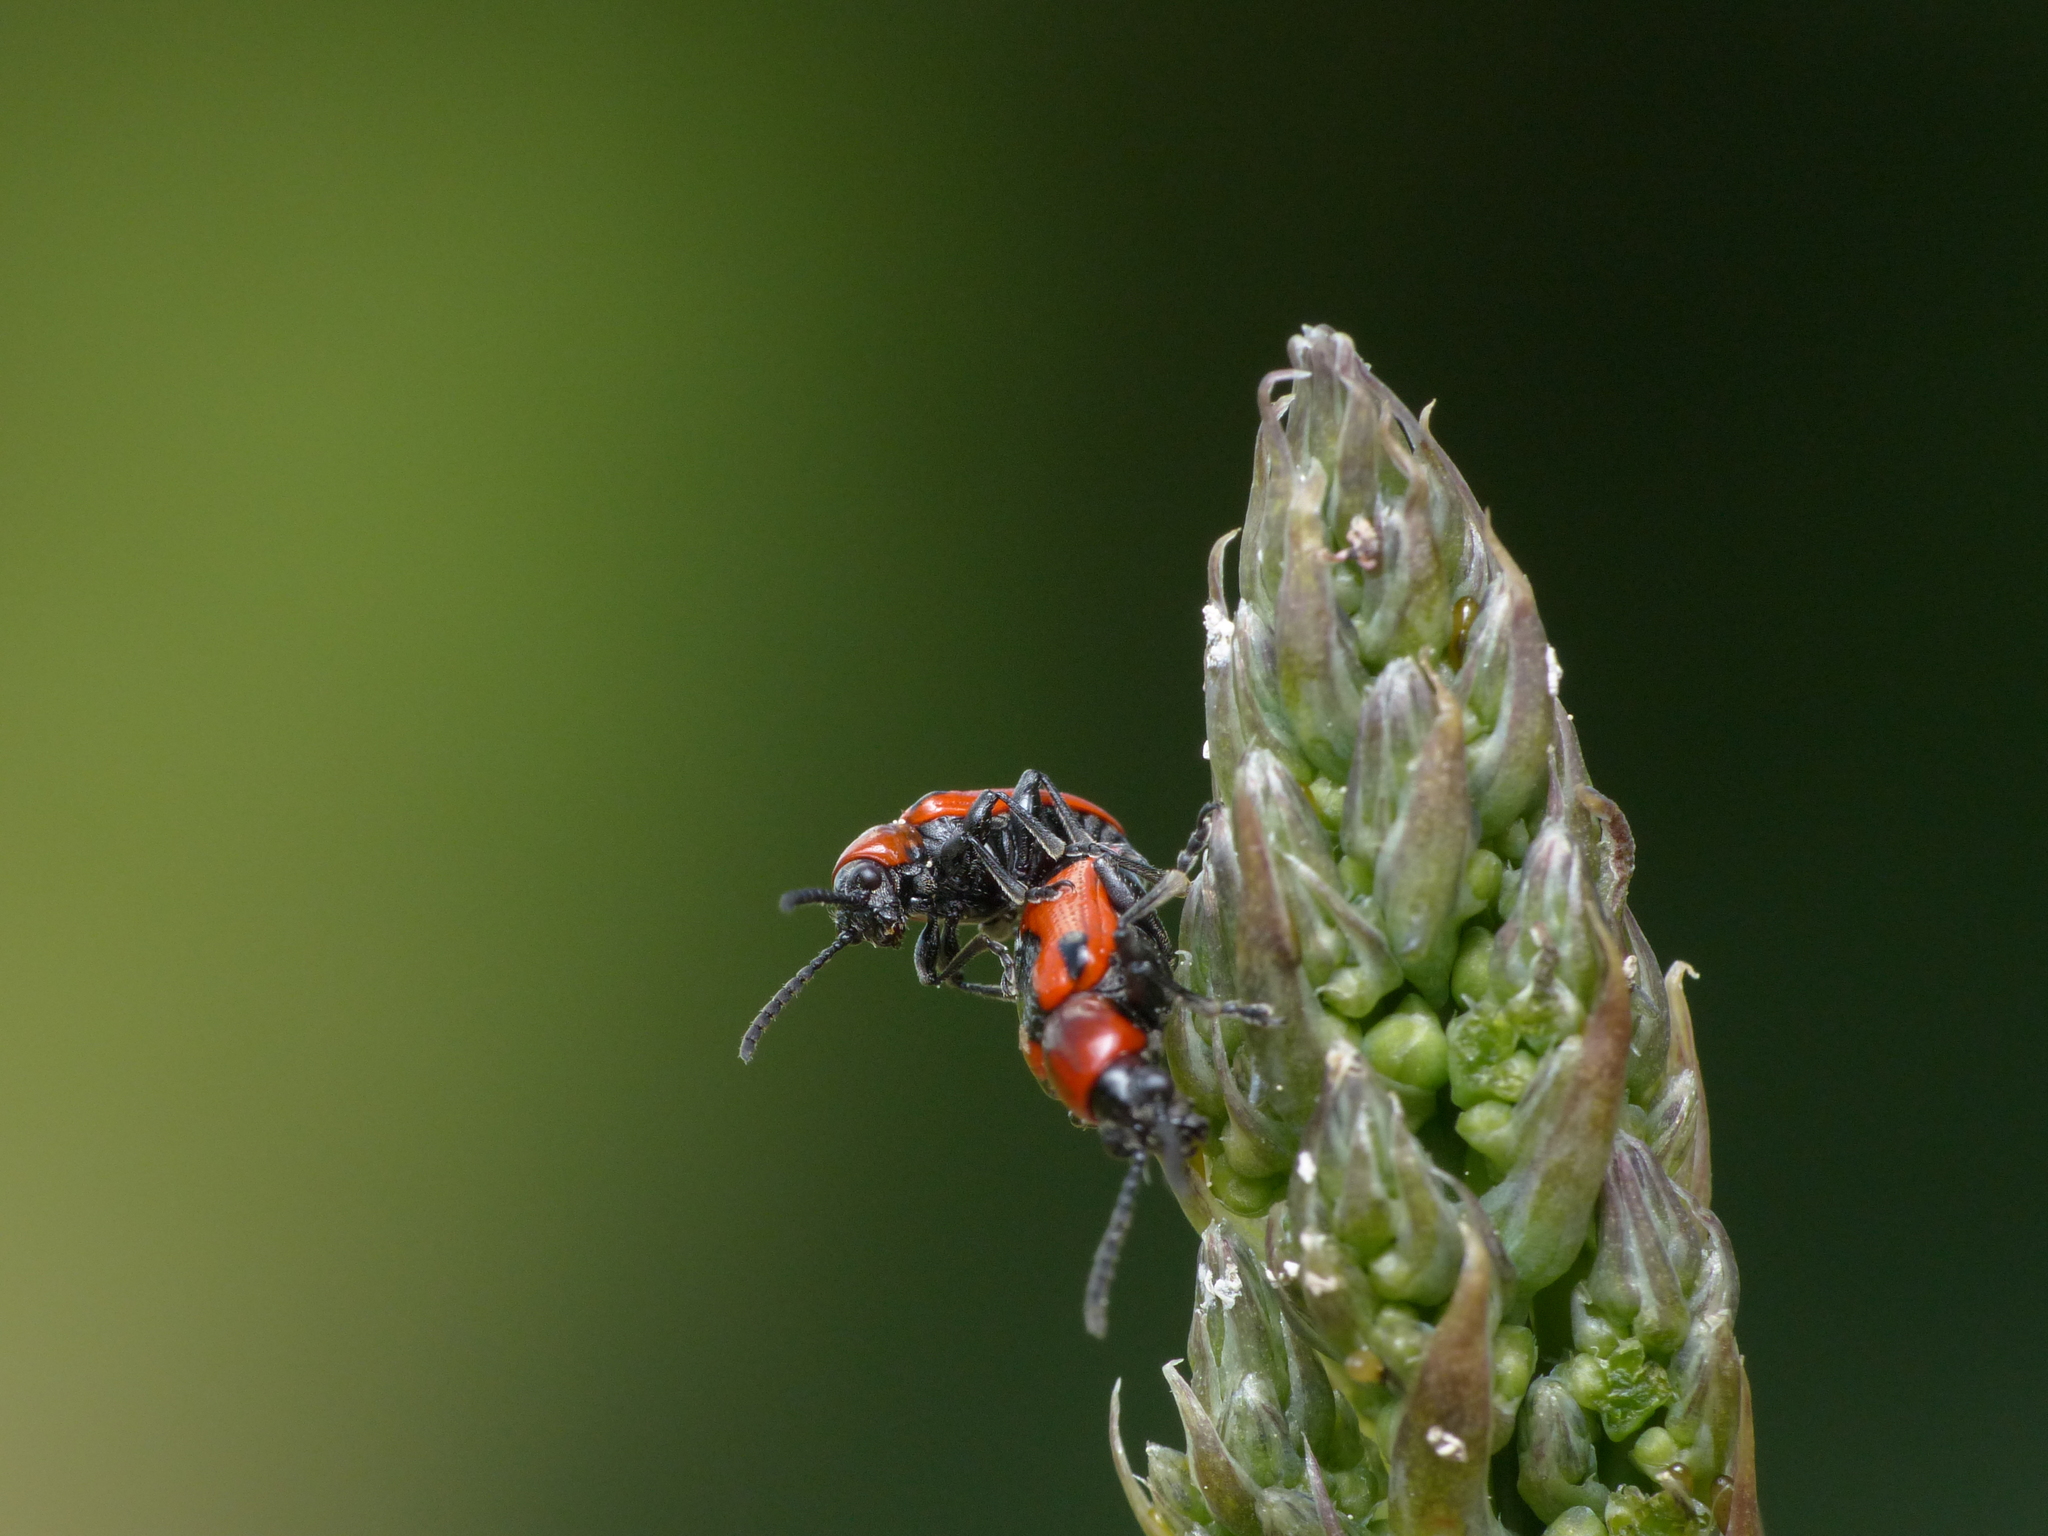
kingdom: Animalia
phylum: Arthropoda
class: Insecta
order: Coleoptera
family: Chrysomelidae
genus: Crioceris
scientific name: Crioceris quinquepunctata
